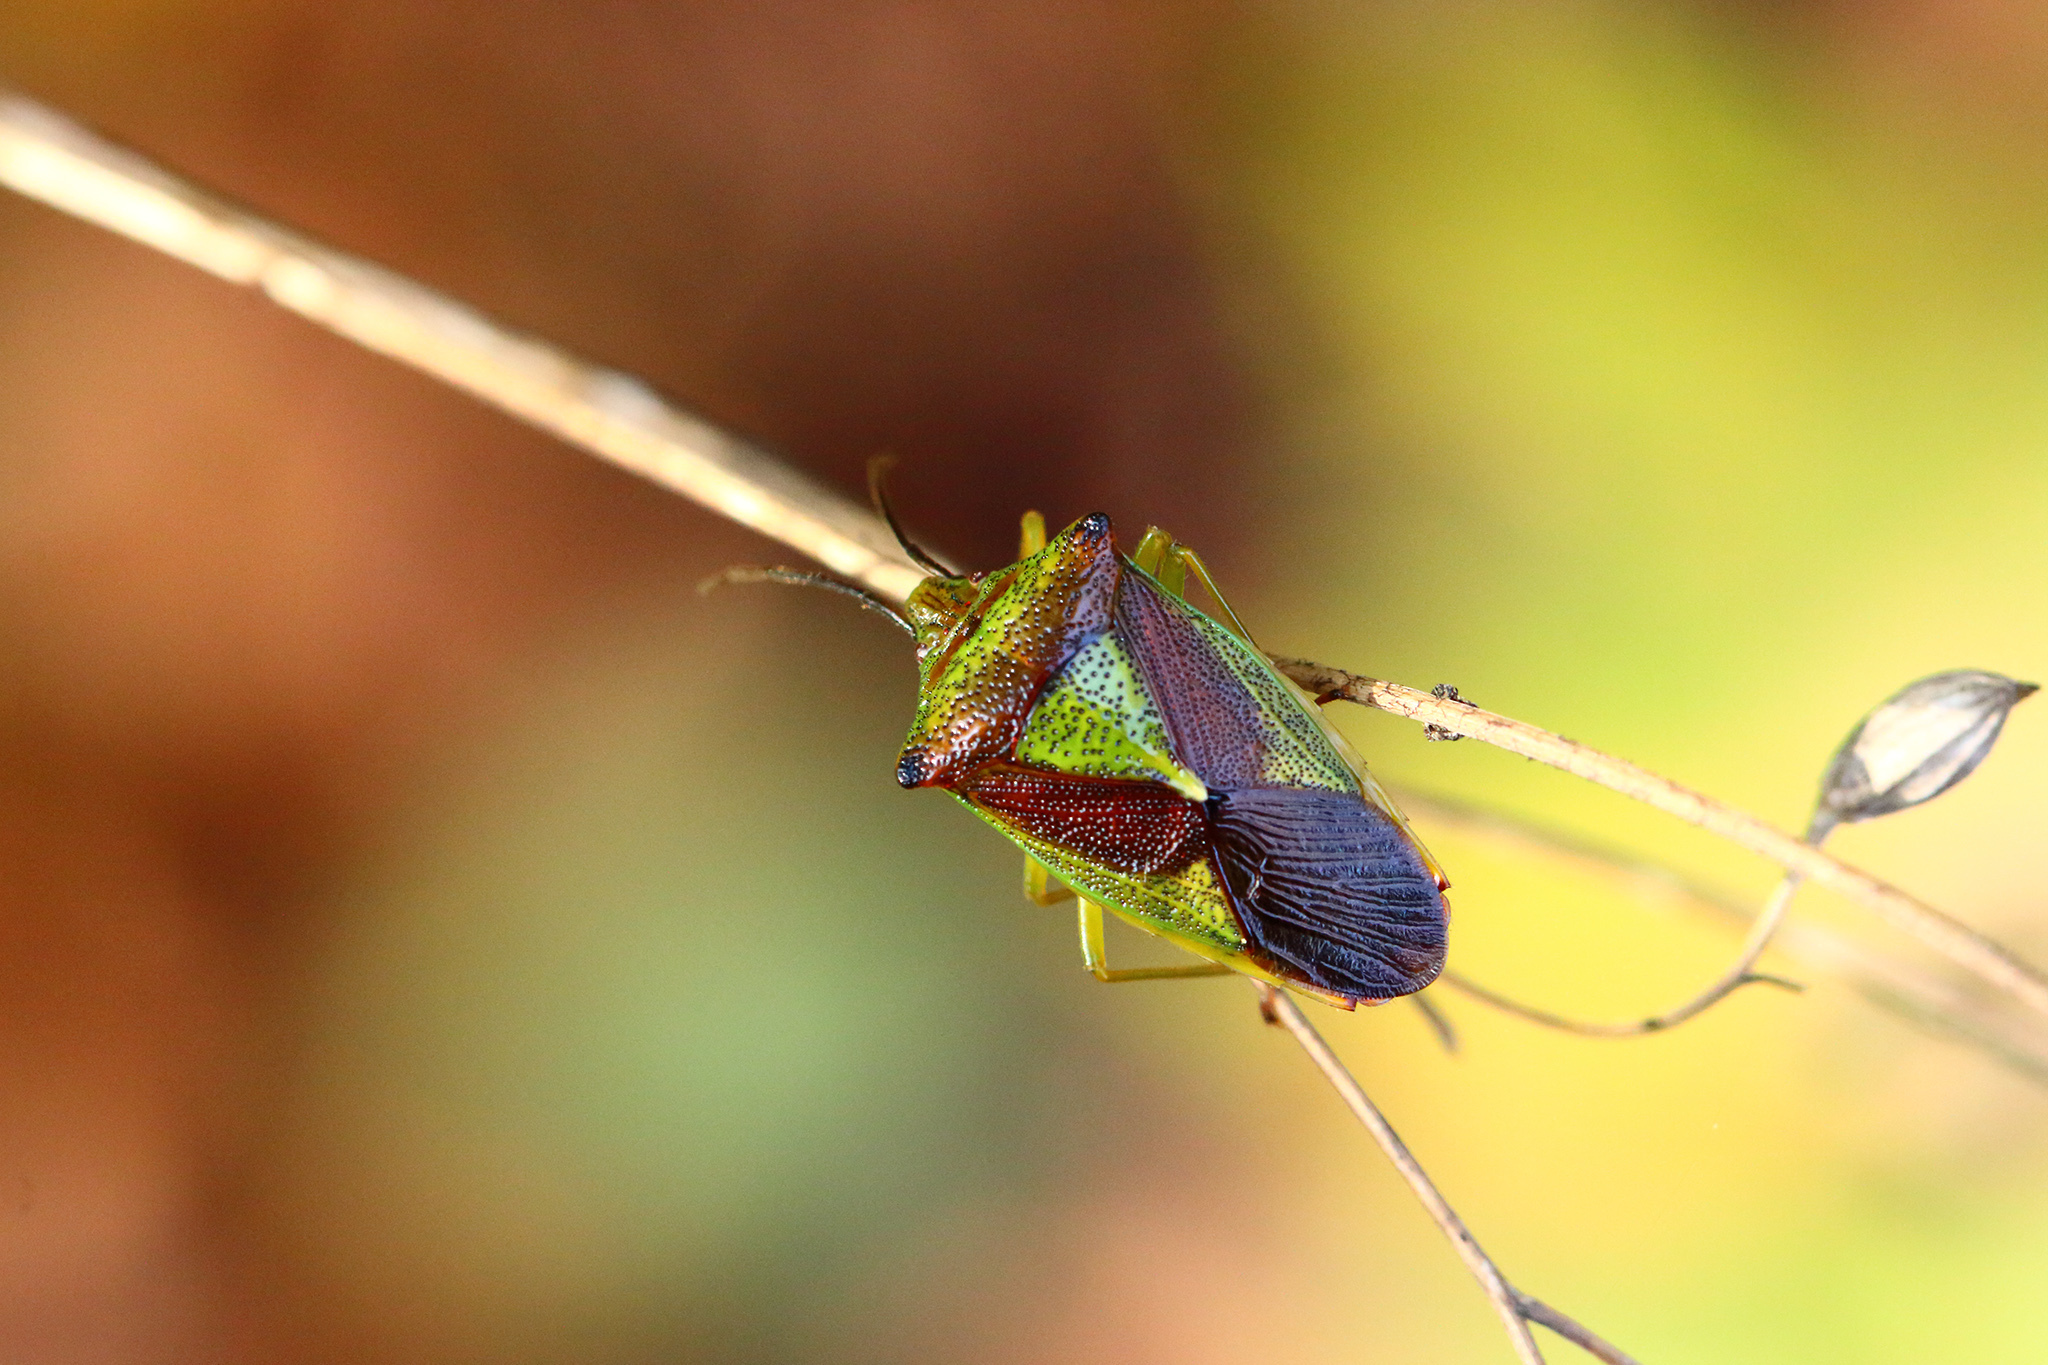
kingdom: Animalia
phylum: Arthropoda
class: Insecta
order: Hemiptera
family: Acanthosomatidae
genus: Acanthosoma
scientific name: Acanthosoma haemorrhoidale
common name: Hawthorn shieldbug
